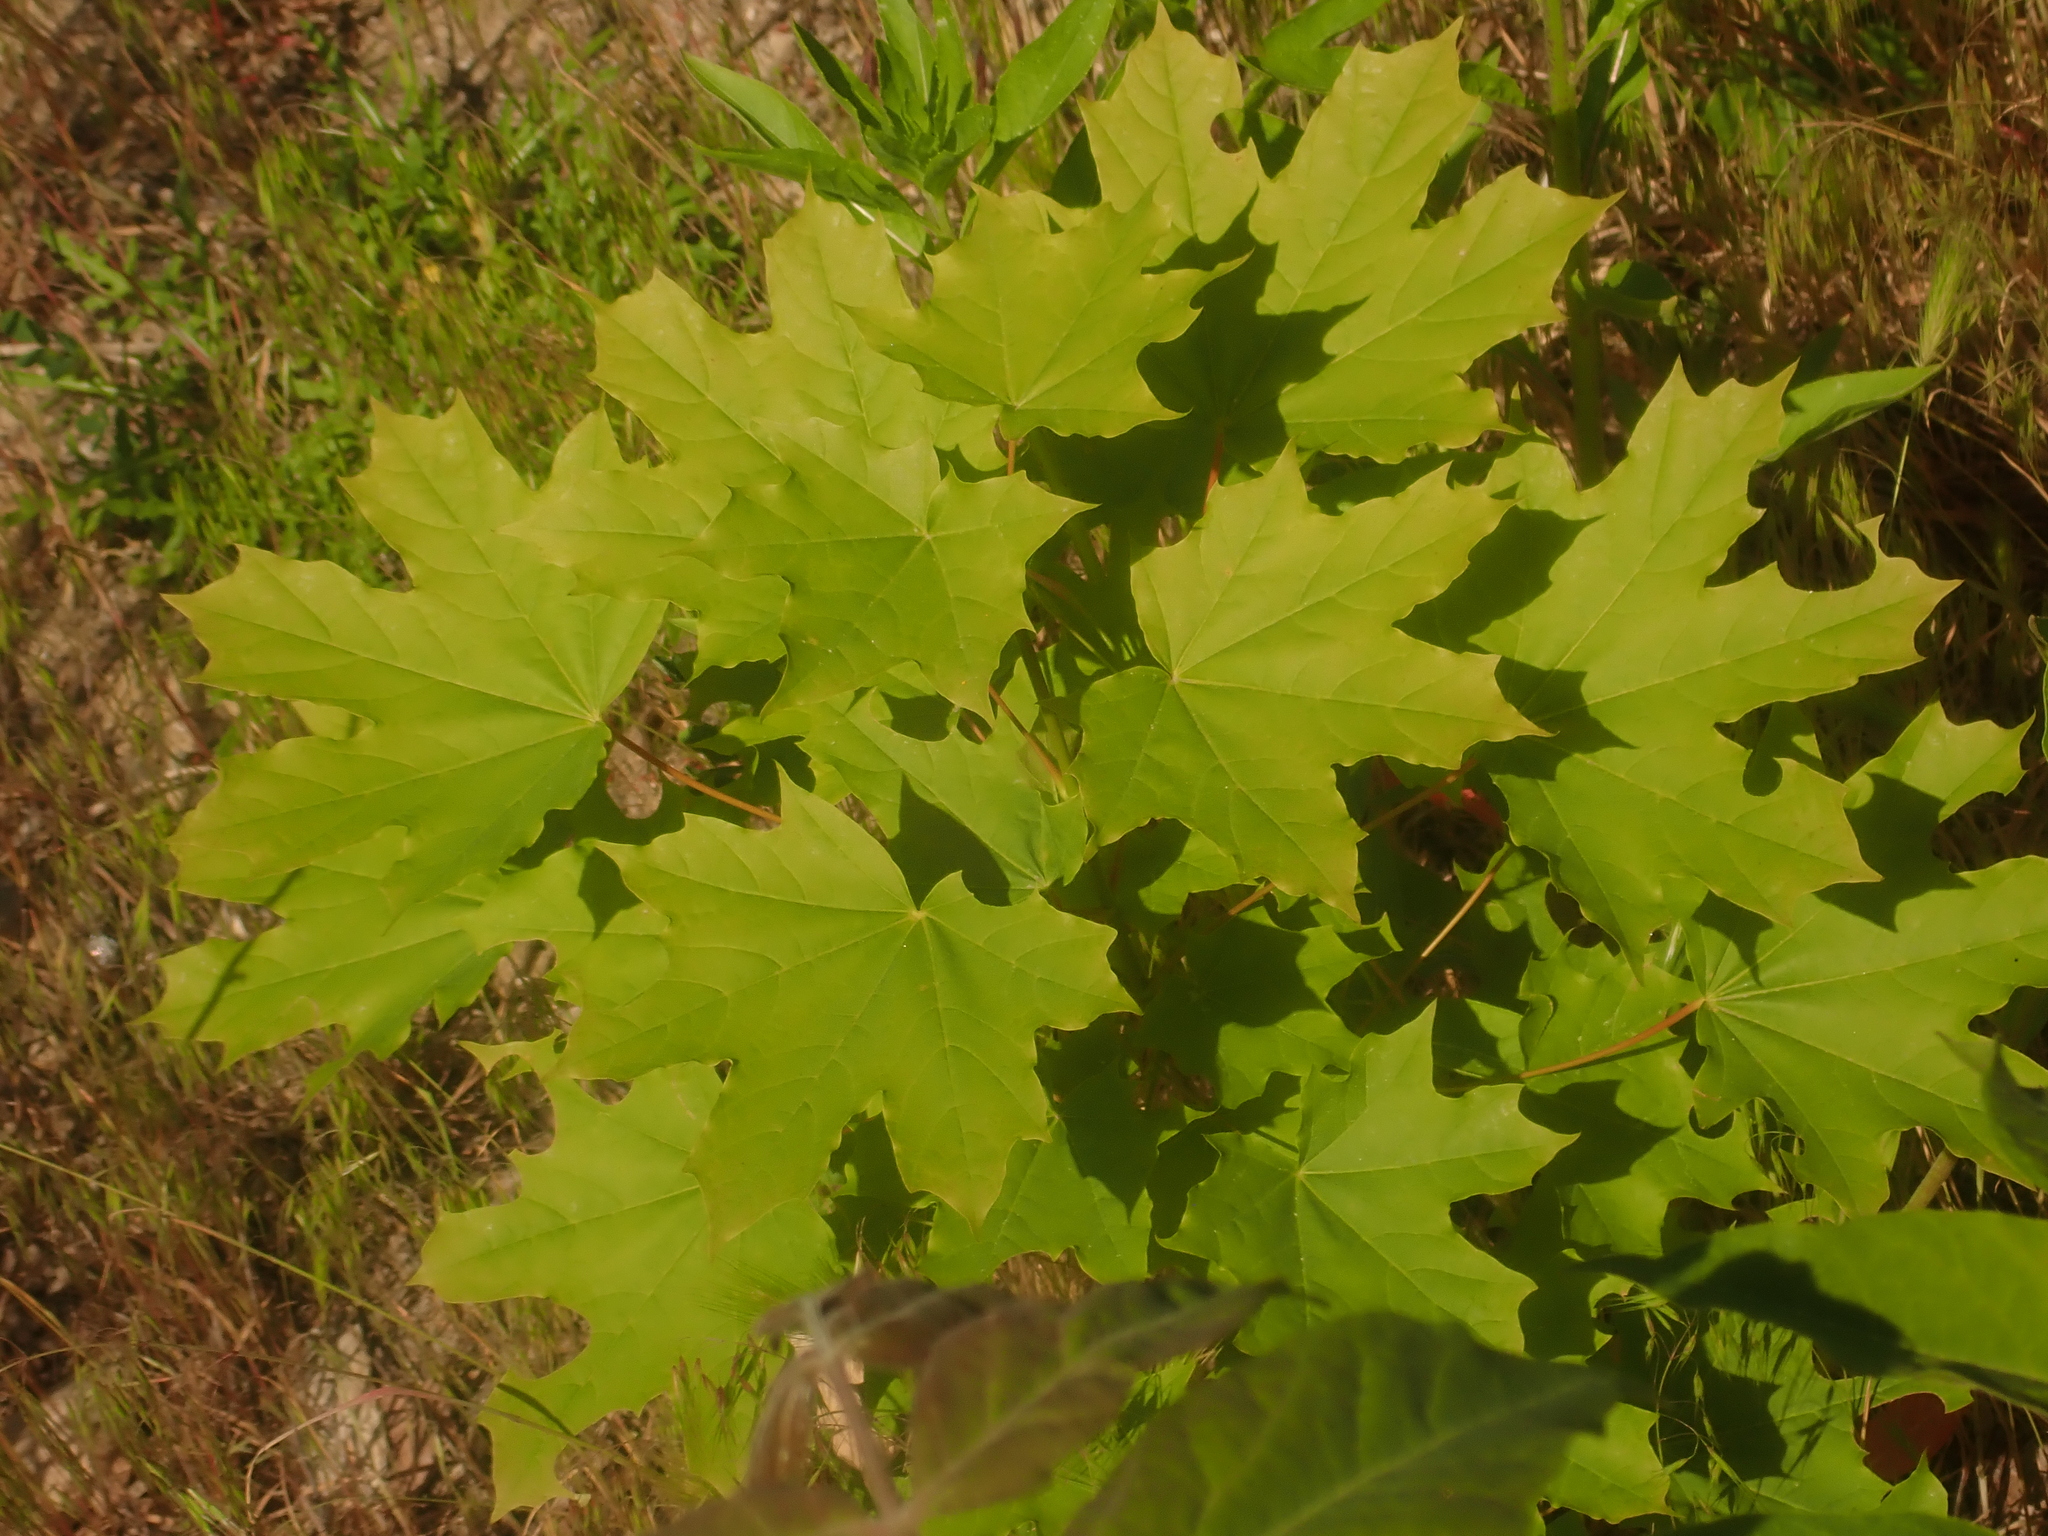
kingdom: Plantae
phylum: Tracheophyta
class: Magnoliopsida
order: Sapindales
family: Sapindaceae
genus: Acer
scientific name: Acer platanoides
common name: Norway maple
